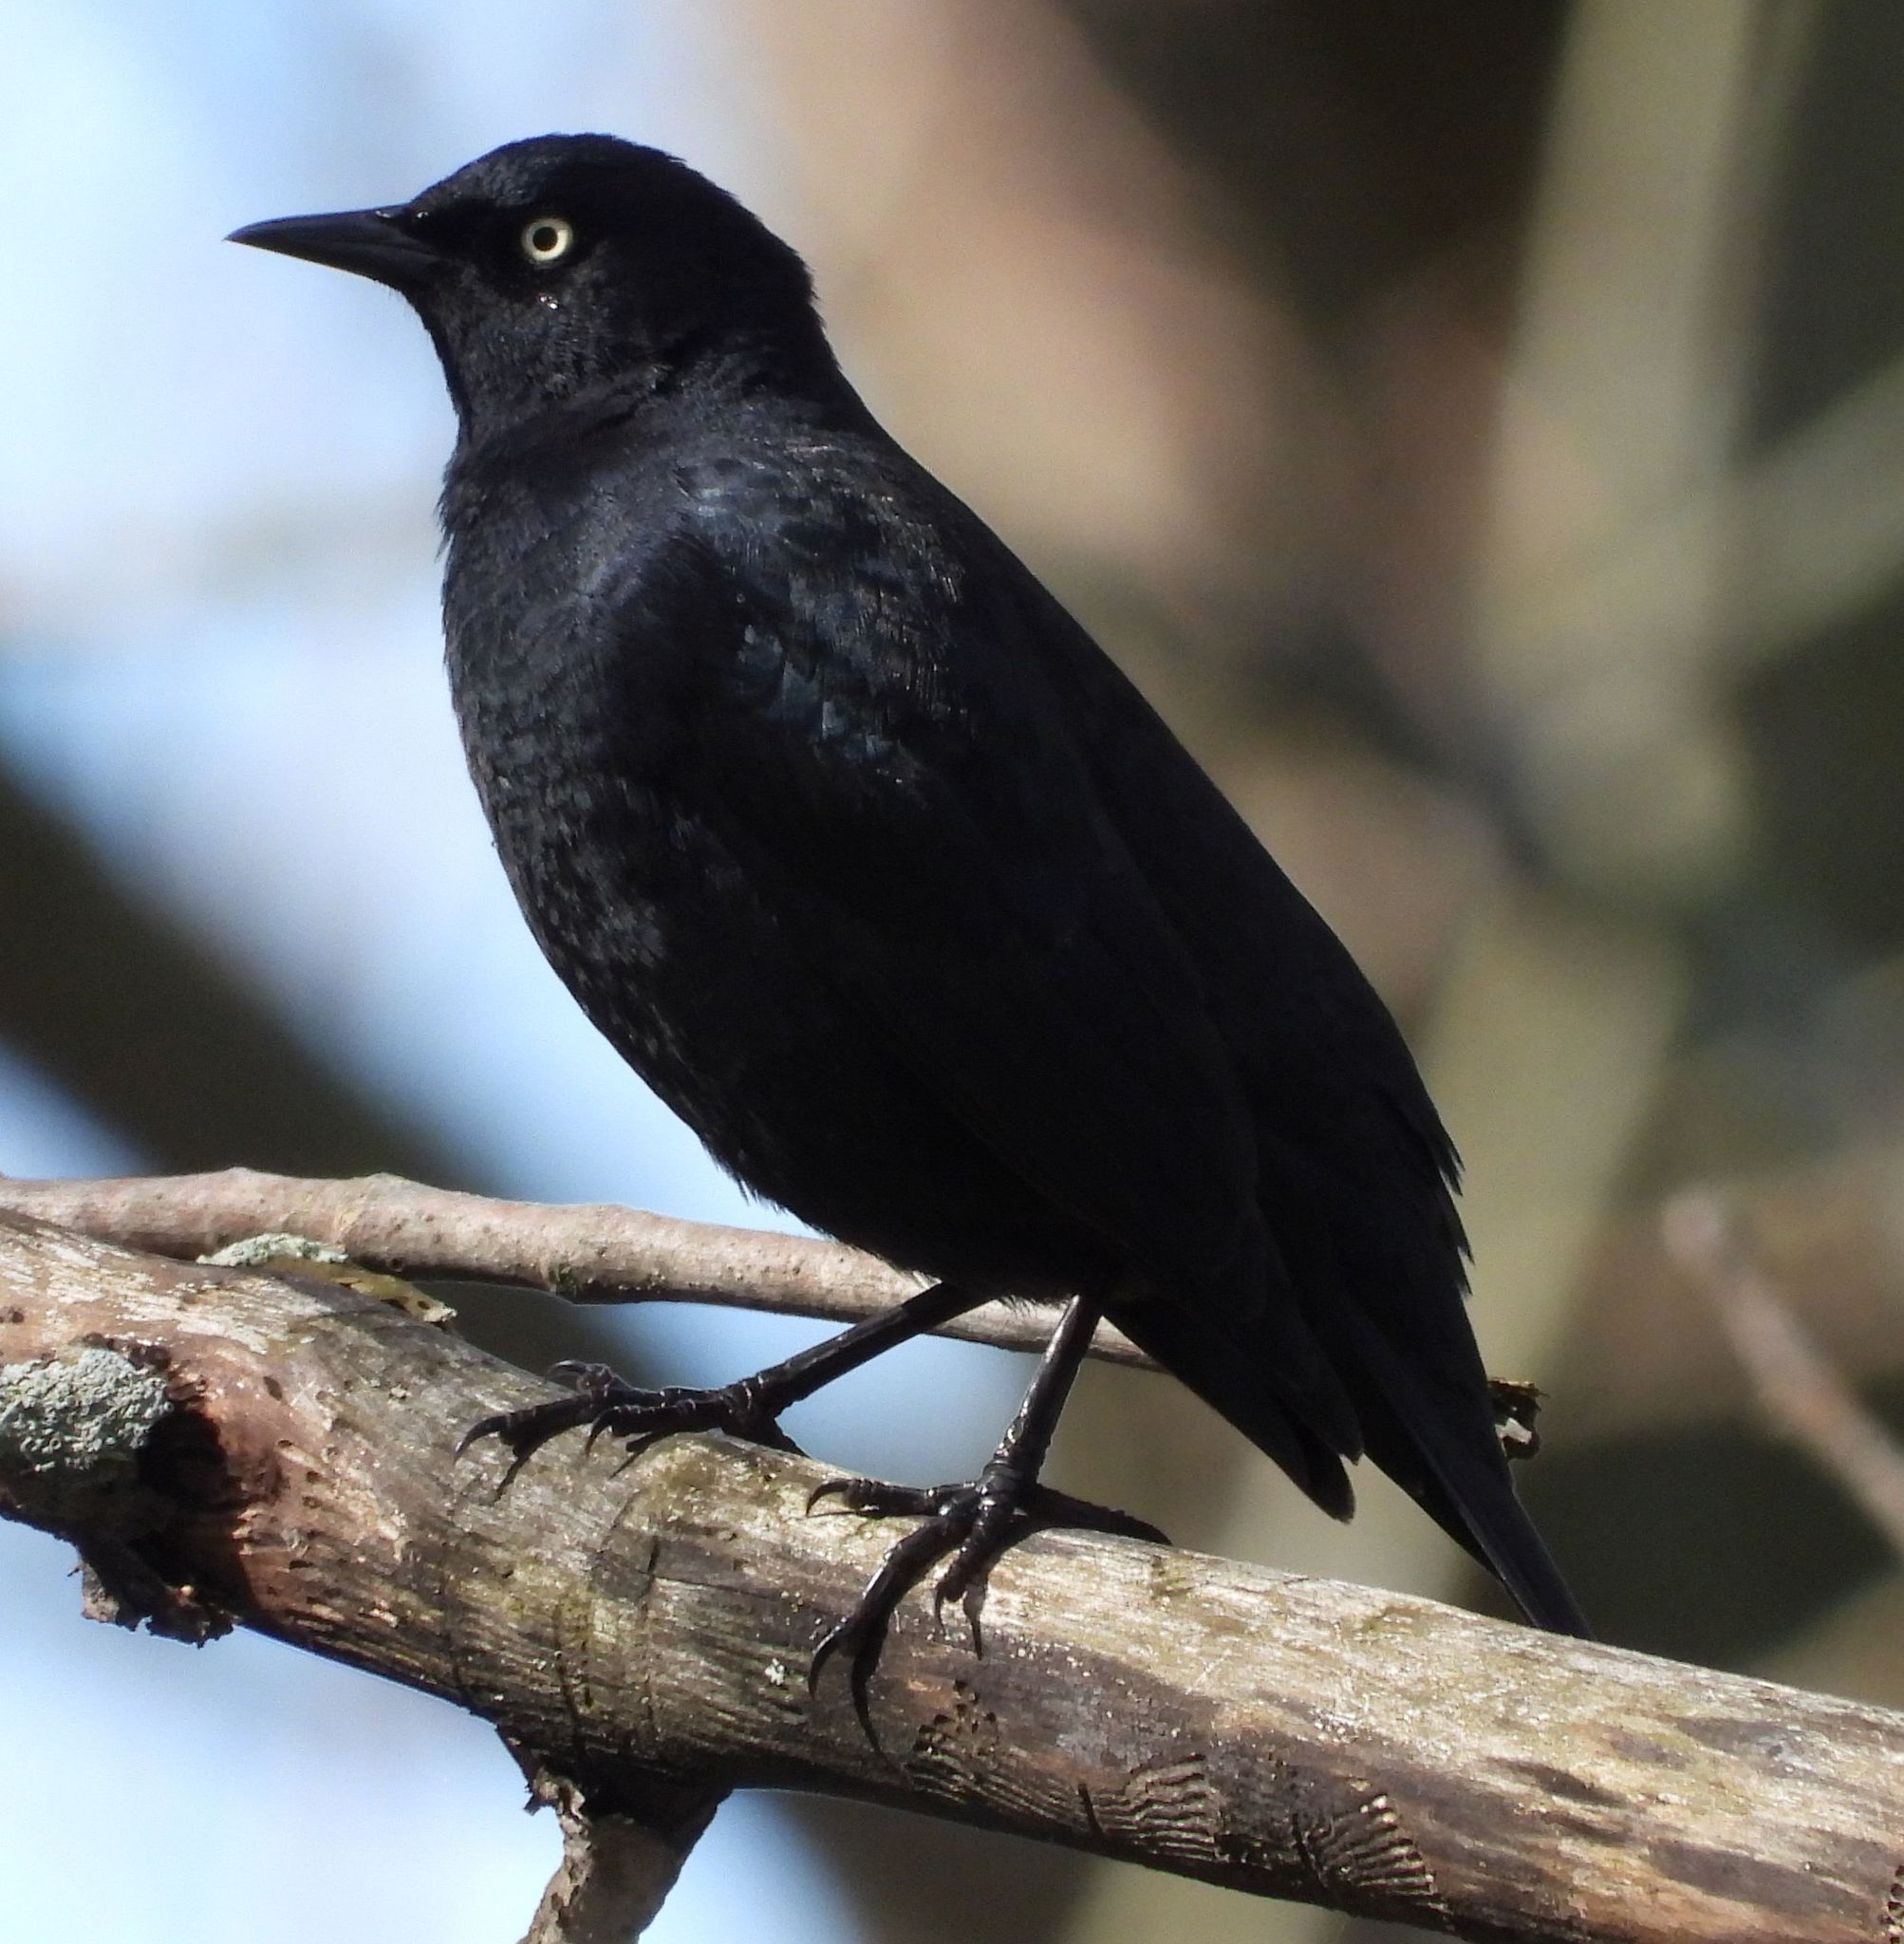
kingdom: Animalia
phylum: Chordata
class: Aves
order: Passeriformes
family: Icteridae
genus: Euphagus
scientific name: Euphagus carolinus
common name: Rusty blackbird
